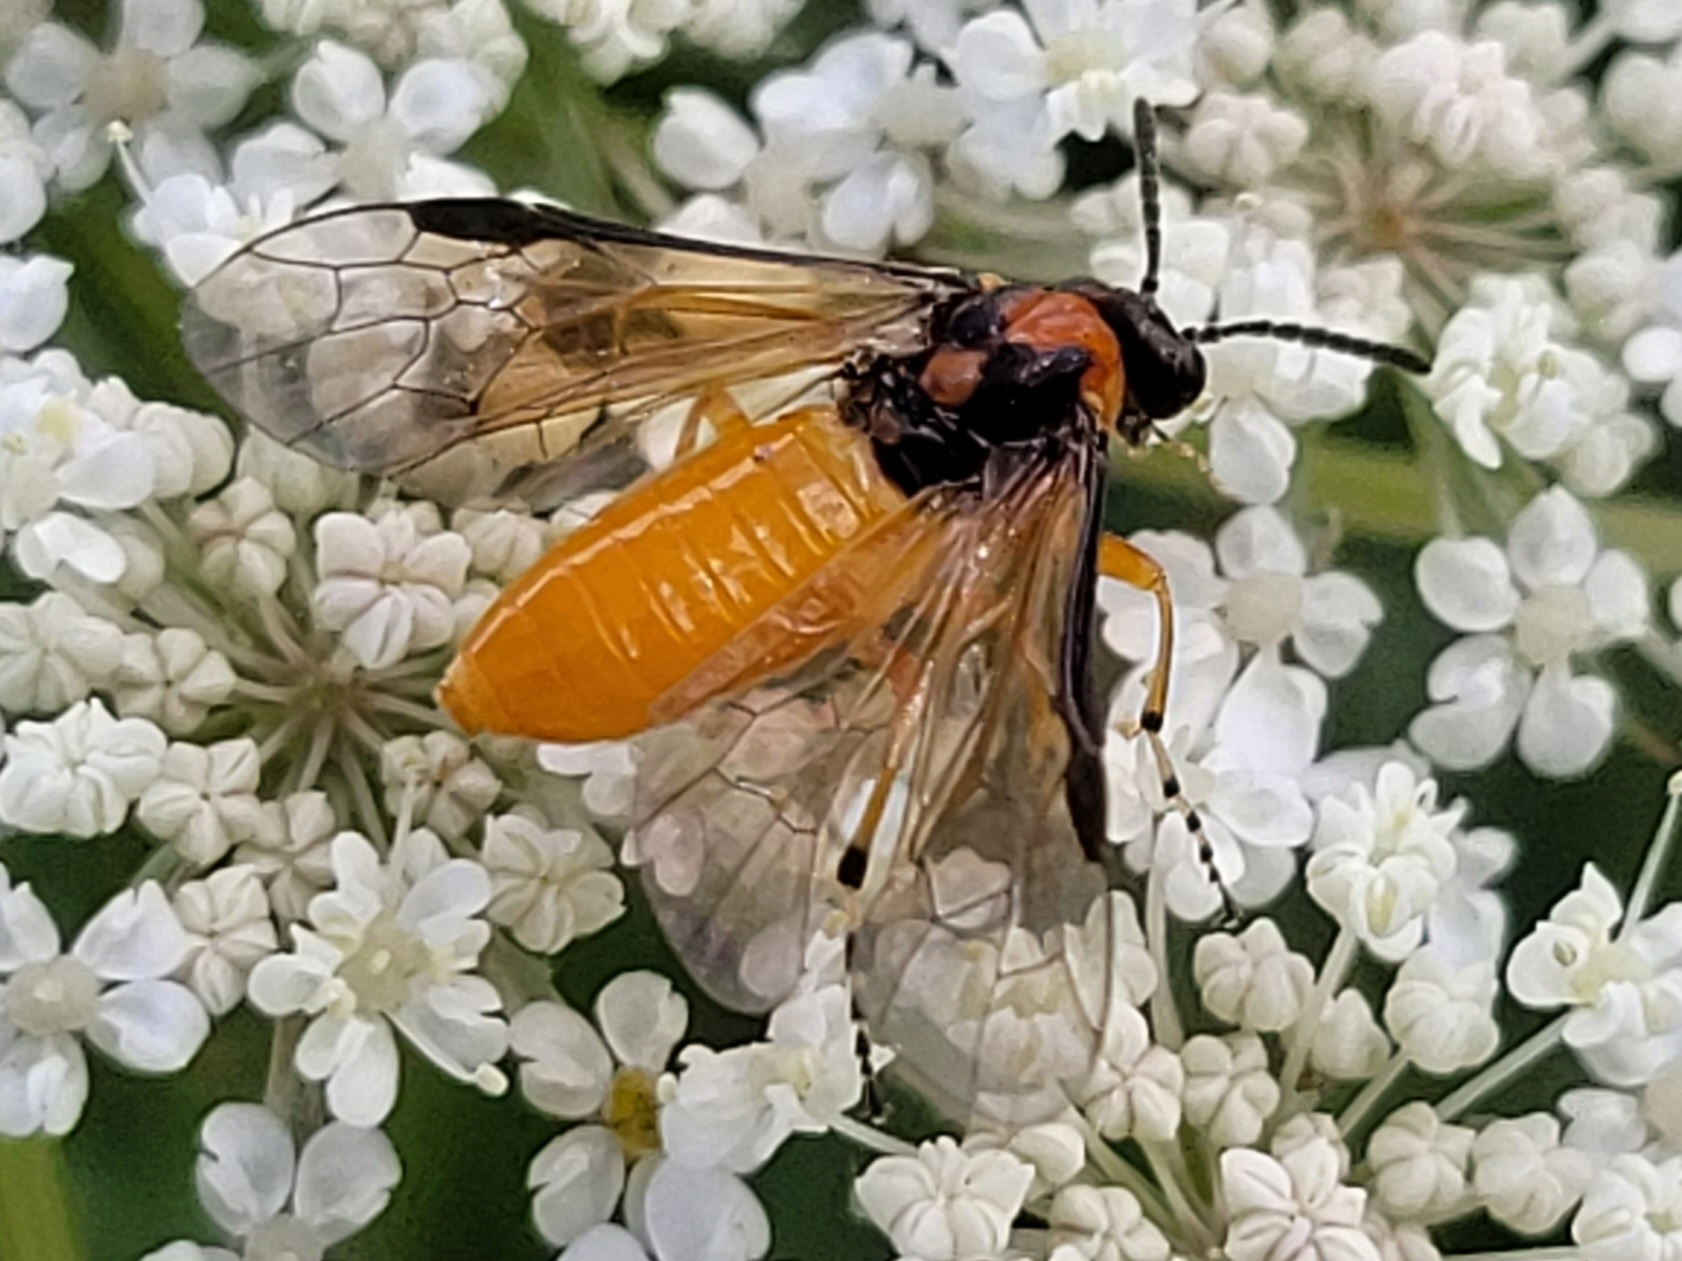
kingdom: Animalia
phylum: Arthropoda
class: Insecta
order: Hymenoptera
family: Tenthredinidae
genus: Athalia
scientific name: Athalia rosae
